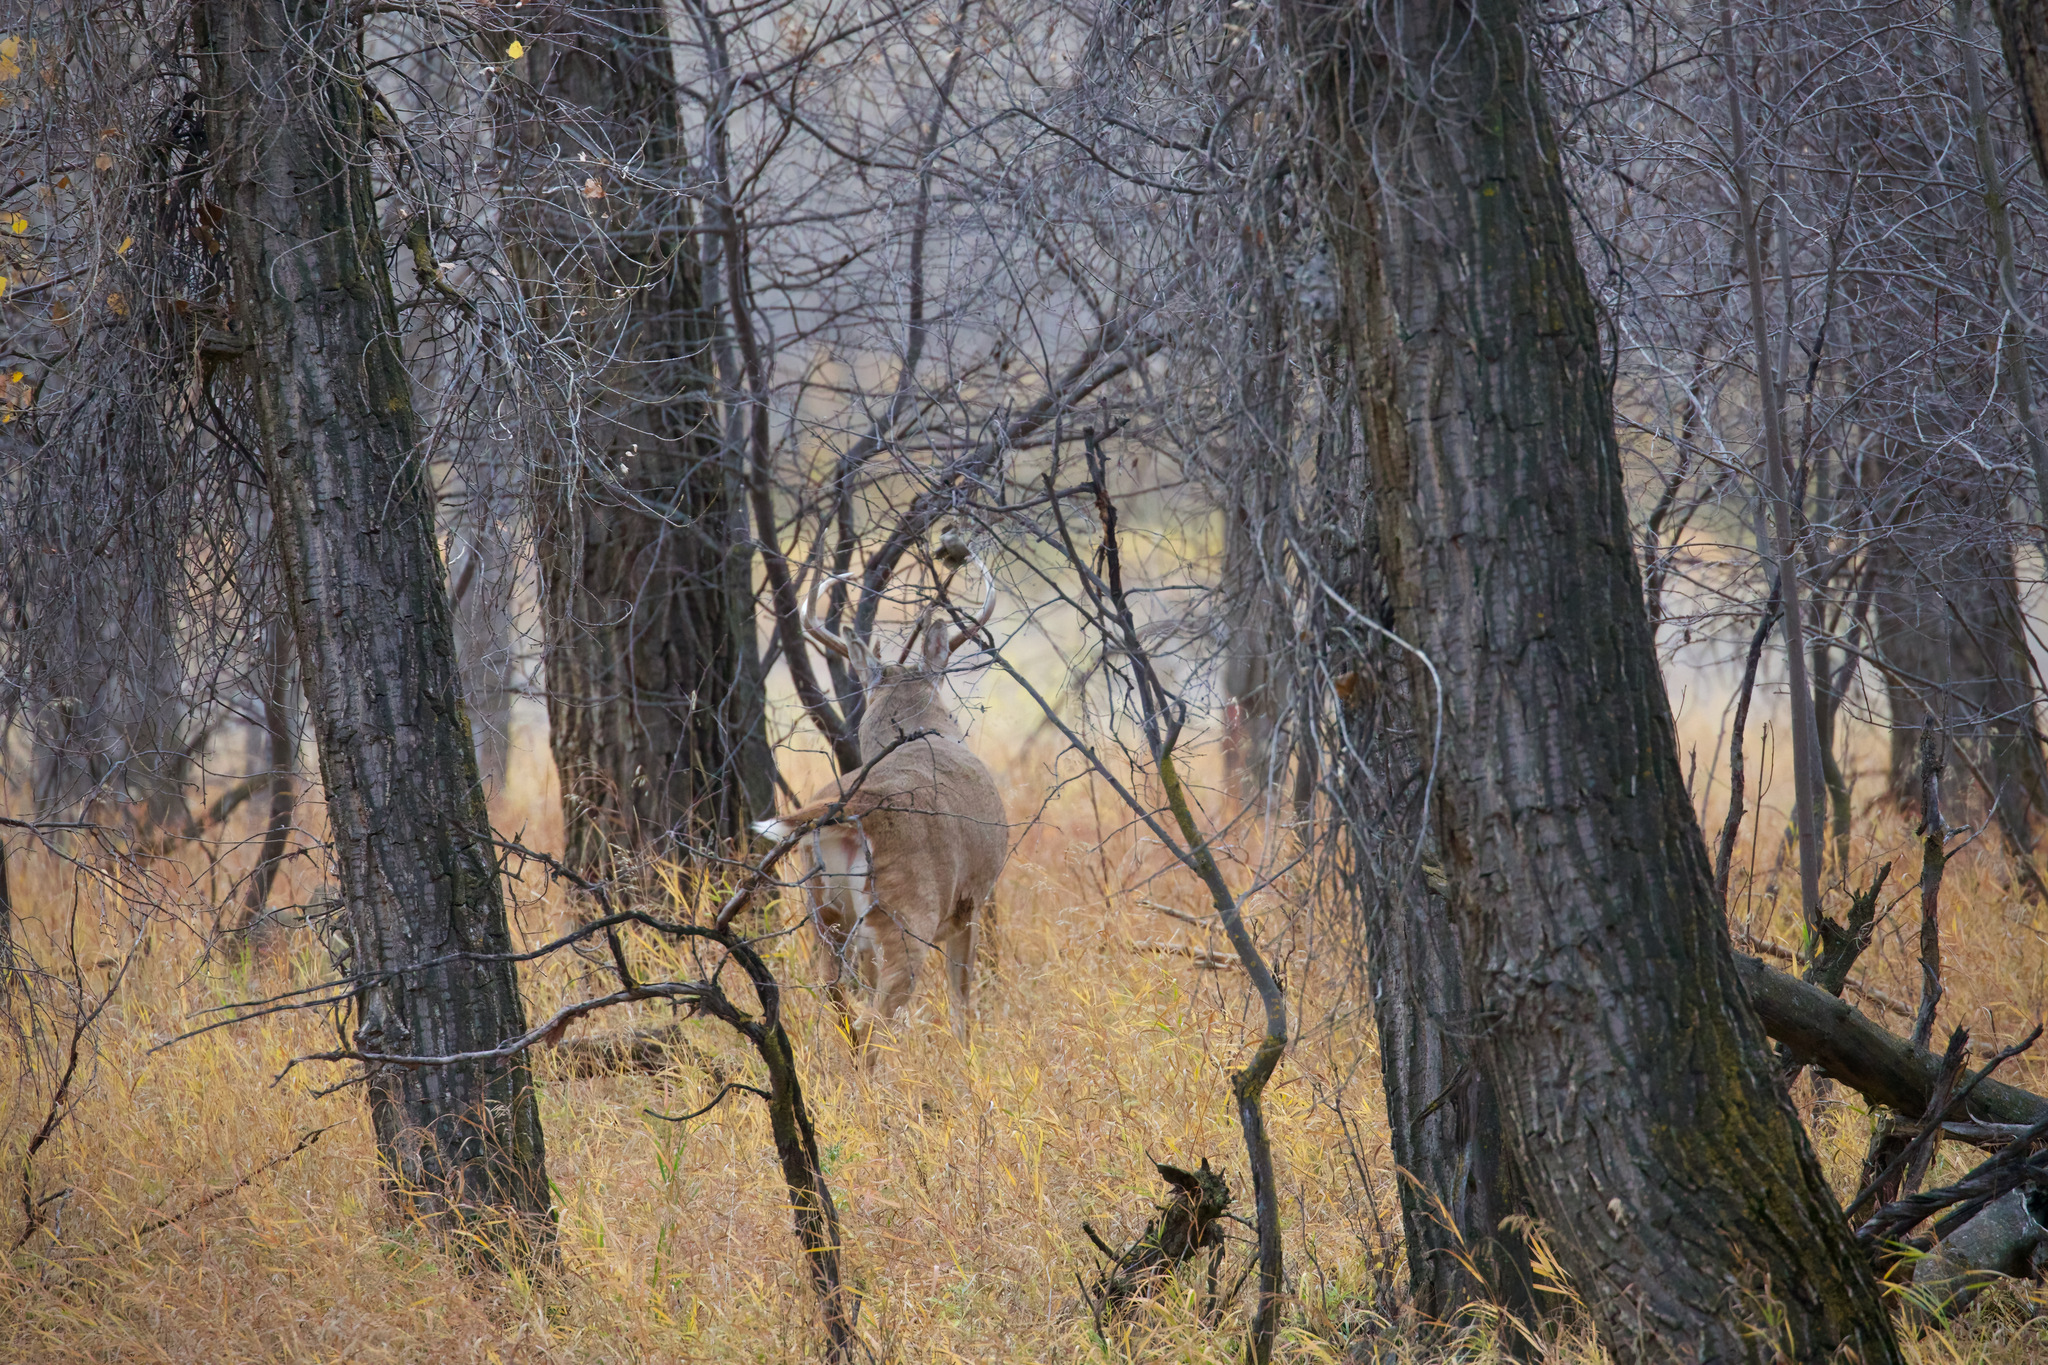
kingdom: Animalia
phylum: Chordata
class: Mammalia
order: Artiodactyla
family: Cervidae
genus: Odocoileus
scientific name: Odocoileus virginianus
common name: White-tailed deer
